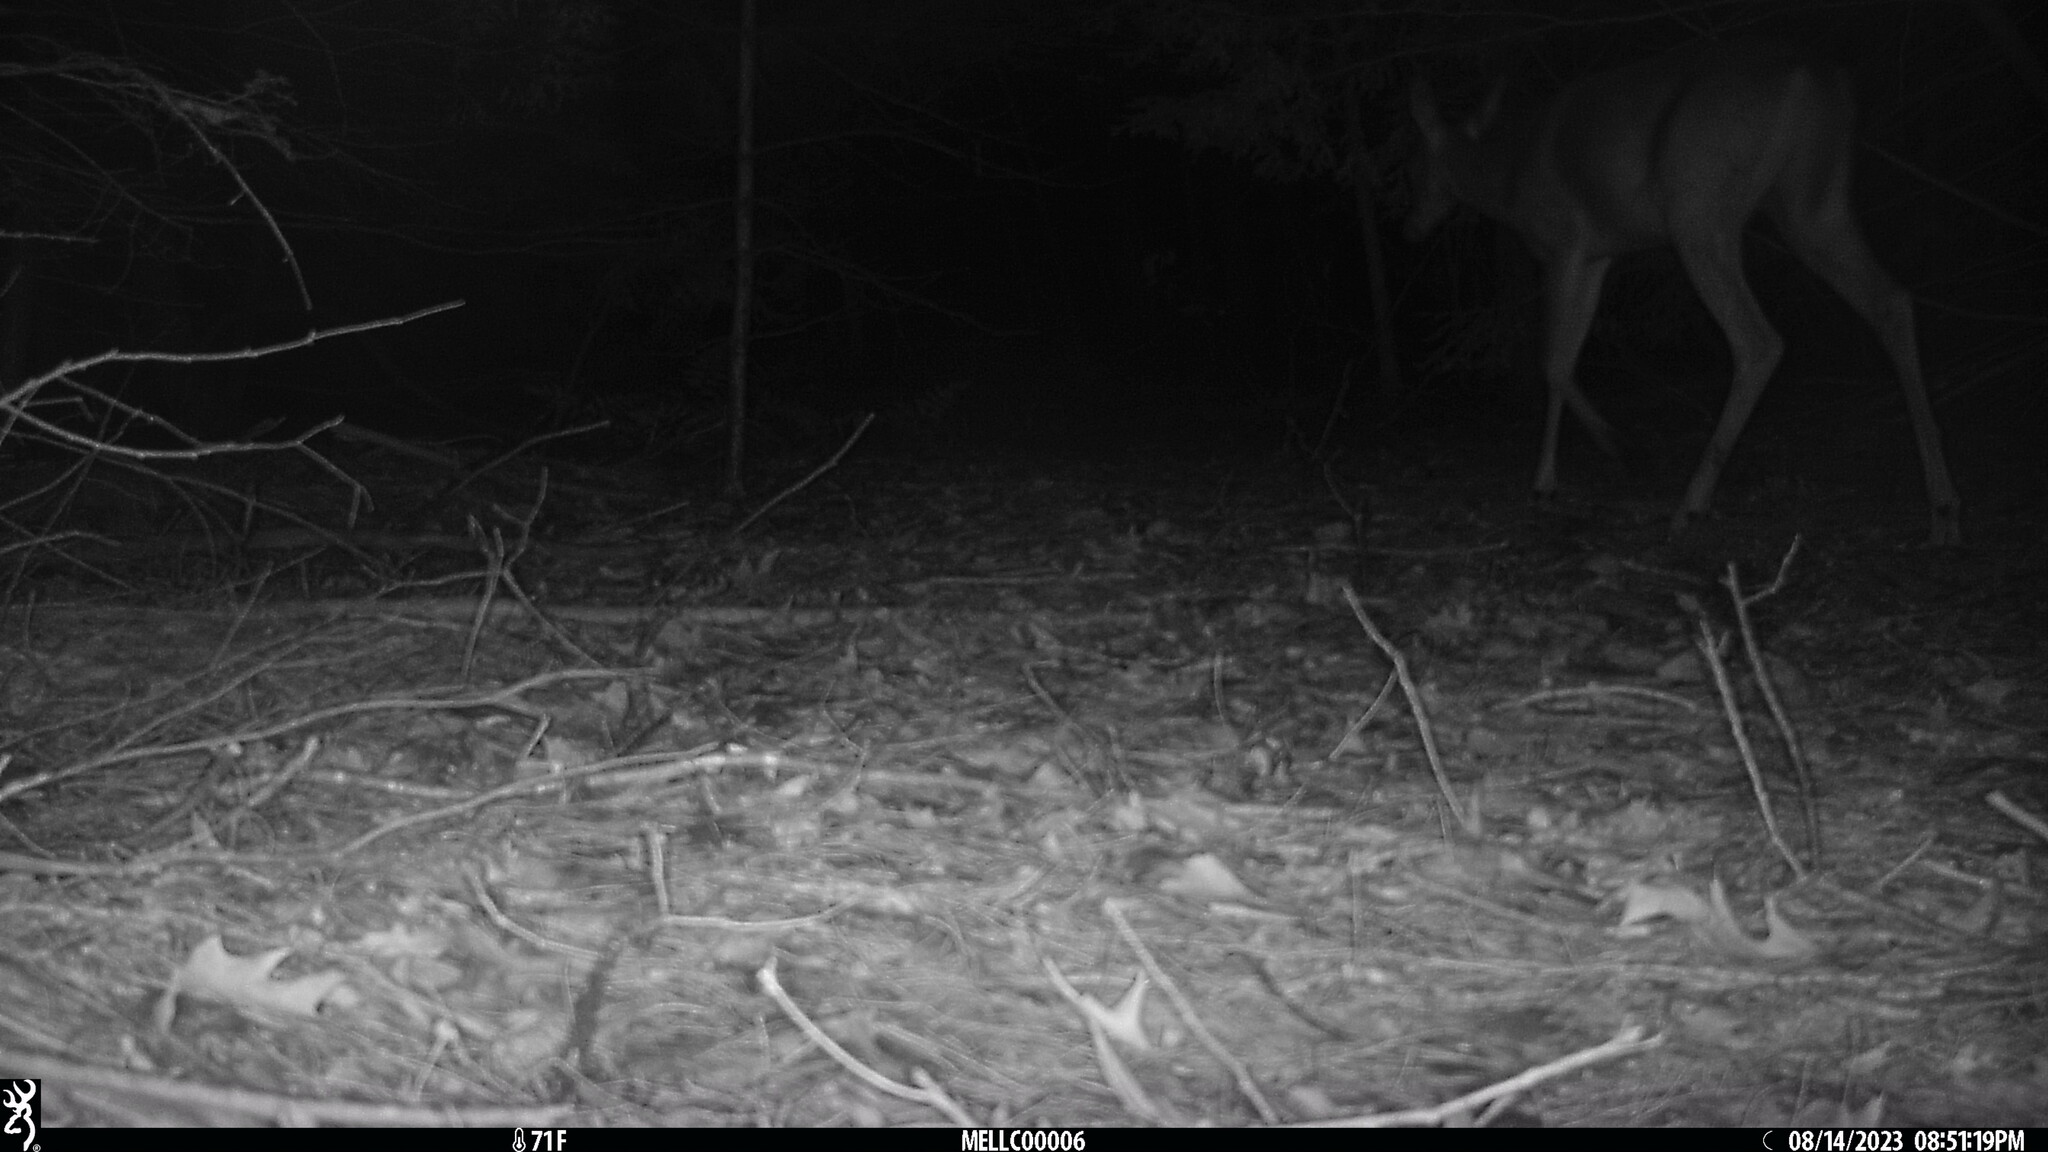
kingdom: Animalia
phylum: Chordata
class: Mammalia
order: Artiodactyla
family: Cervidae
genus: Odocoileus
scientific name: Odocoileus virginianus
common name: White-tailed deer
